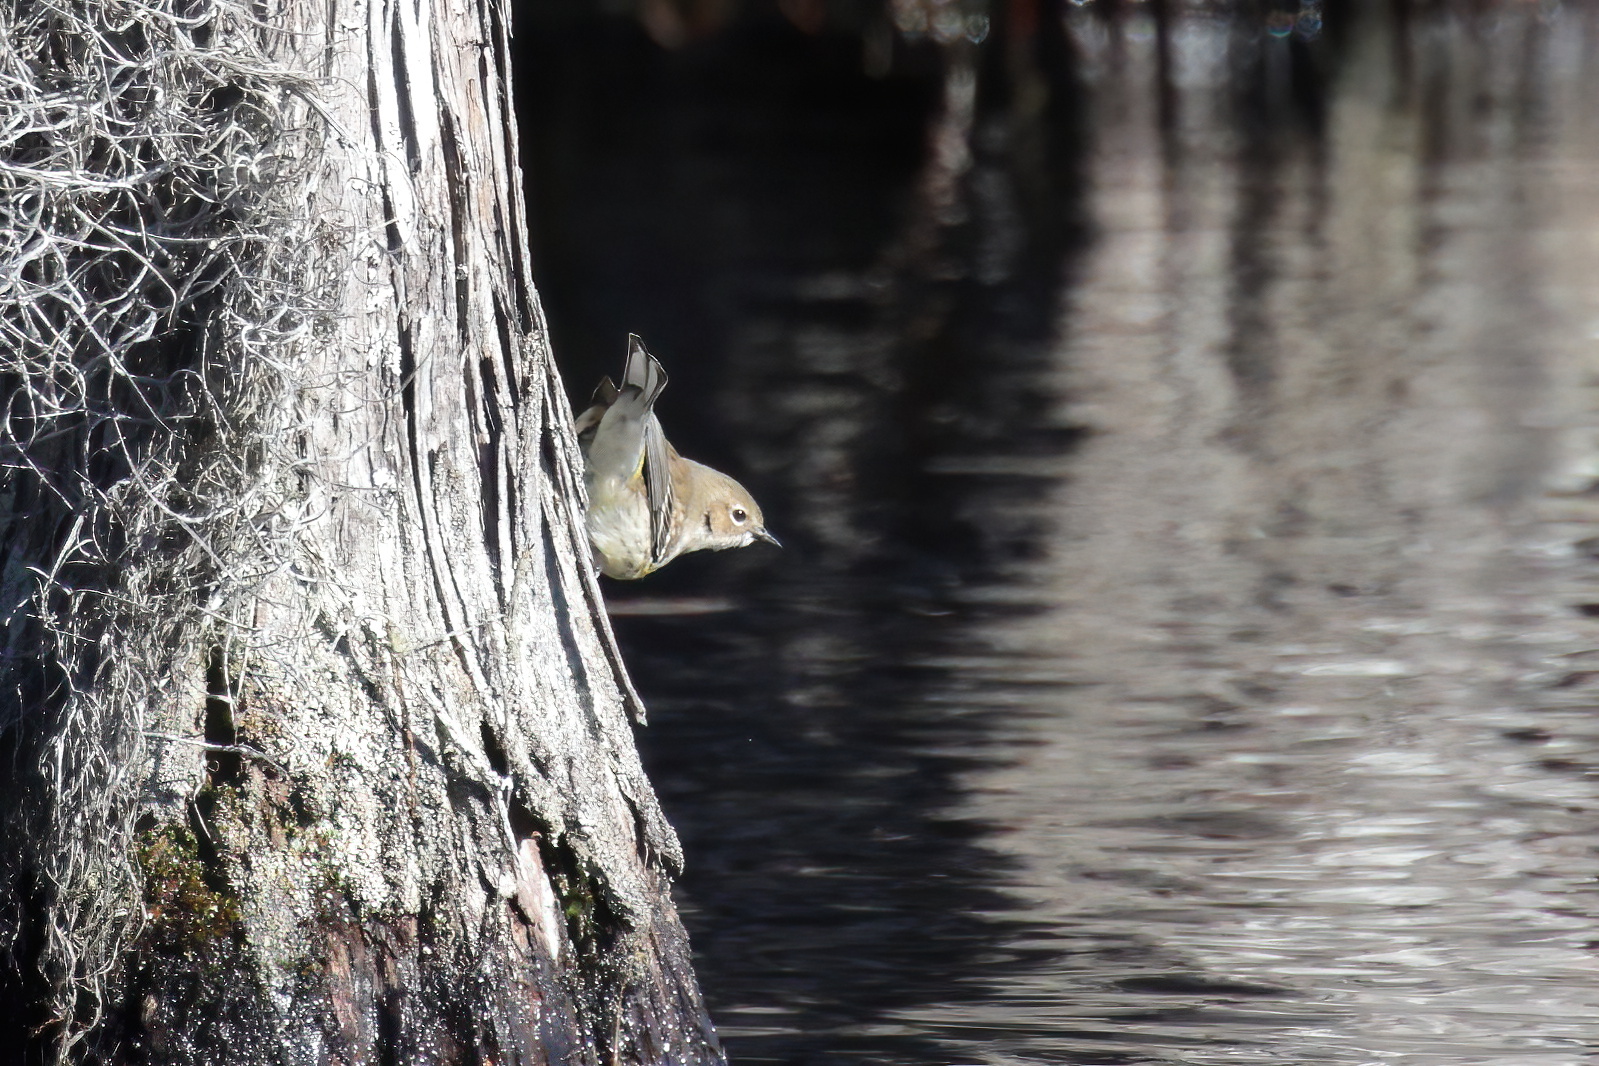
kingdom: Animalia
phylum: Chordata
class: Aves
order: Passeriformes
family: Parulidae
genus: Setophaga
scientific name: Setophaga coronata
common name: Myrtle warbler
